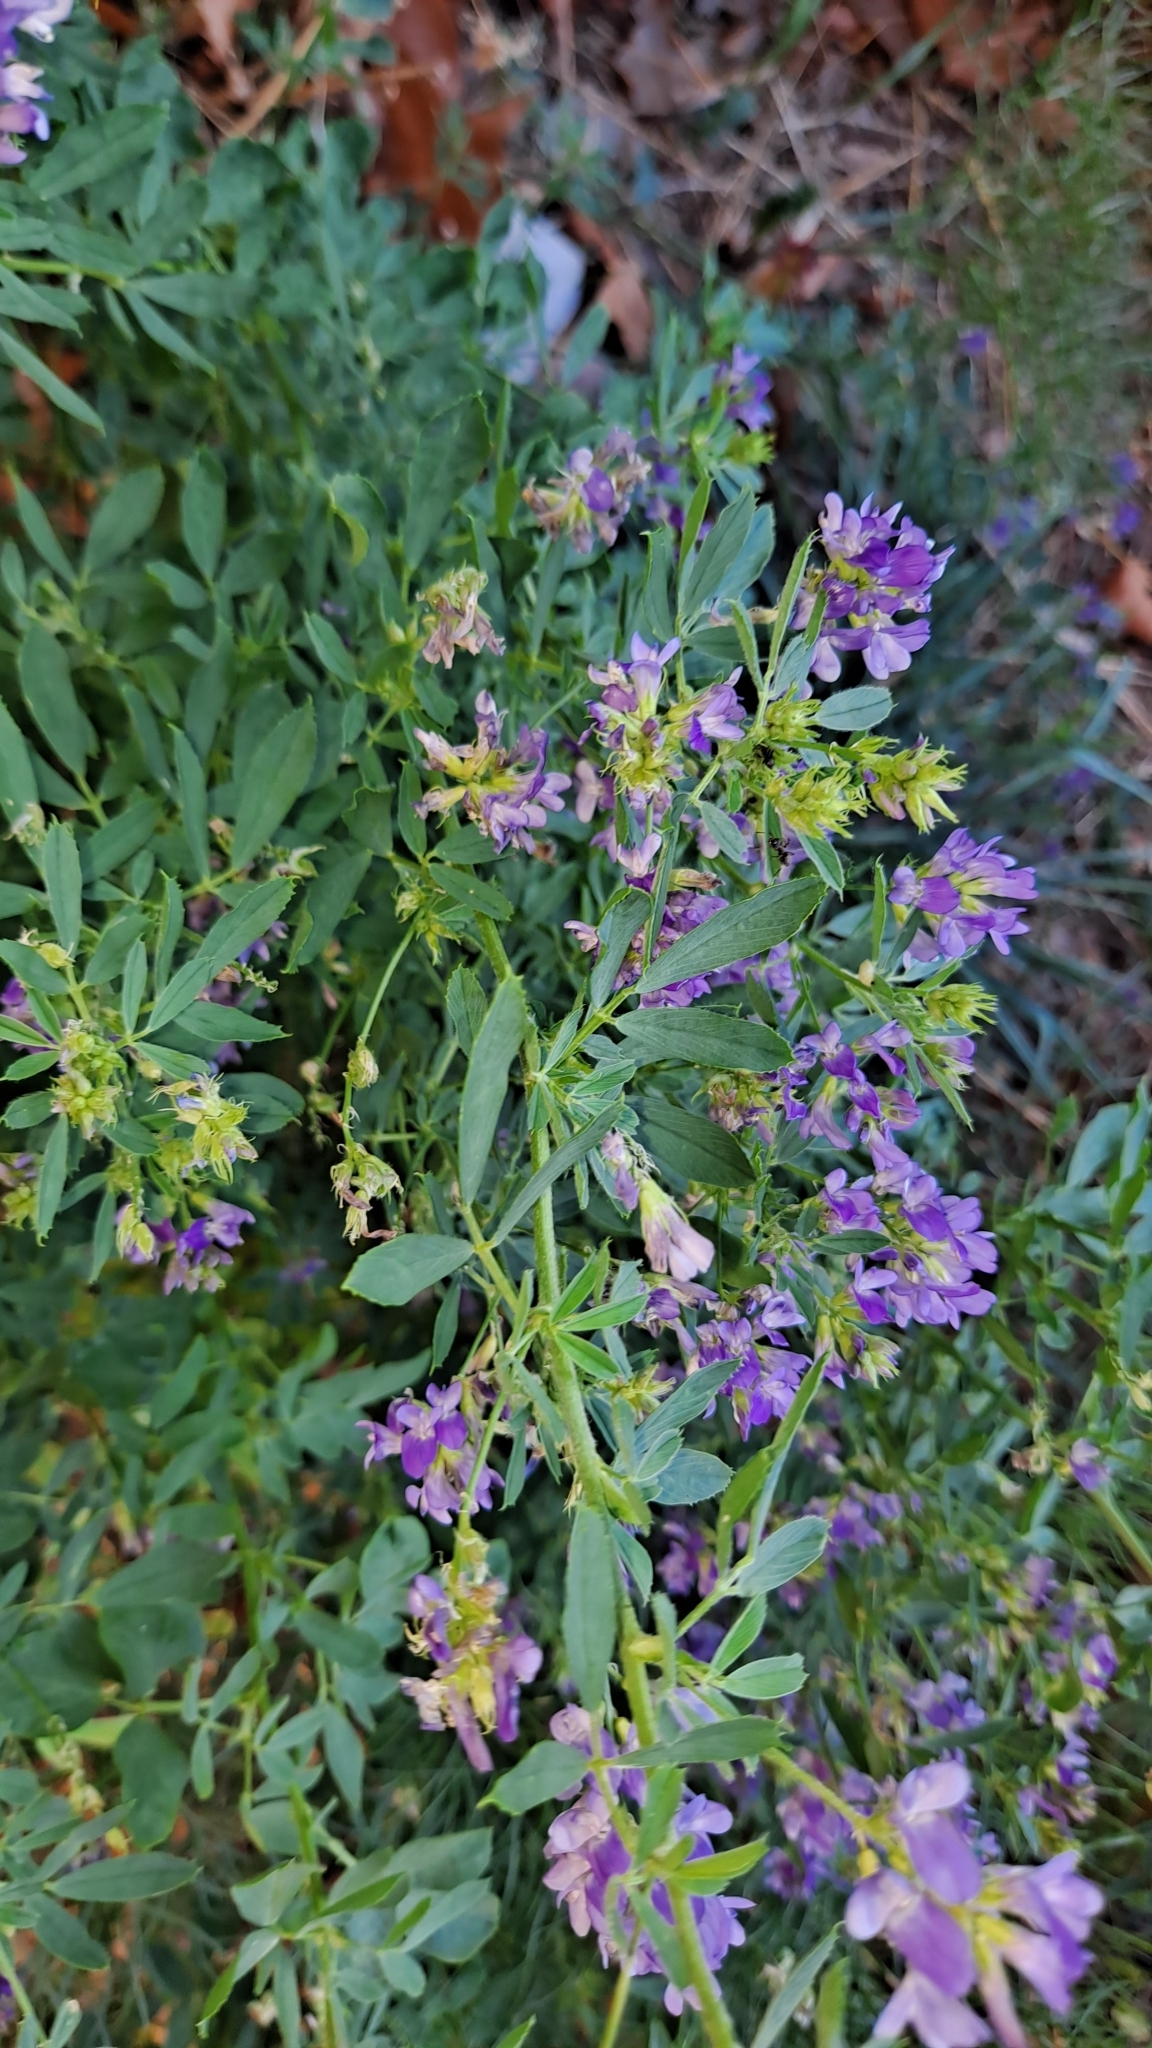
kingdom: Plantae
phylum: Tracheophyta
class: Magnoliopsida
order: Fabales
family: Fabaceae
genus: Medicago
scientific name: Medicago sativa
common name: Alfalfa
